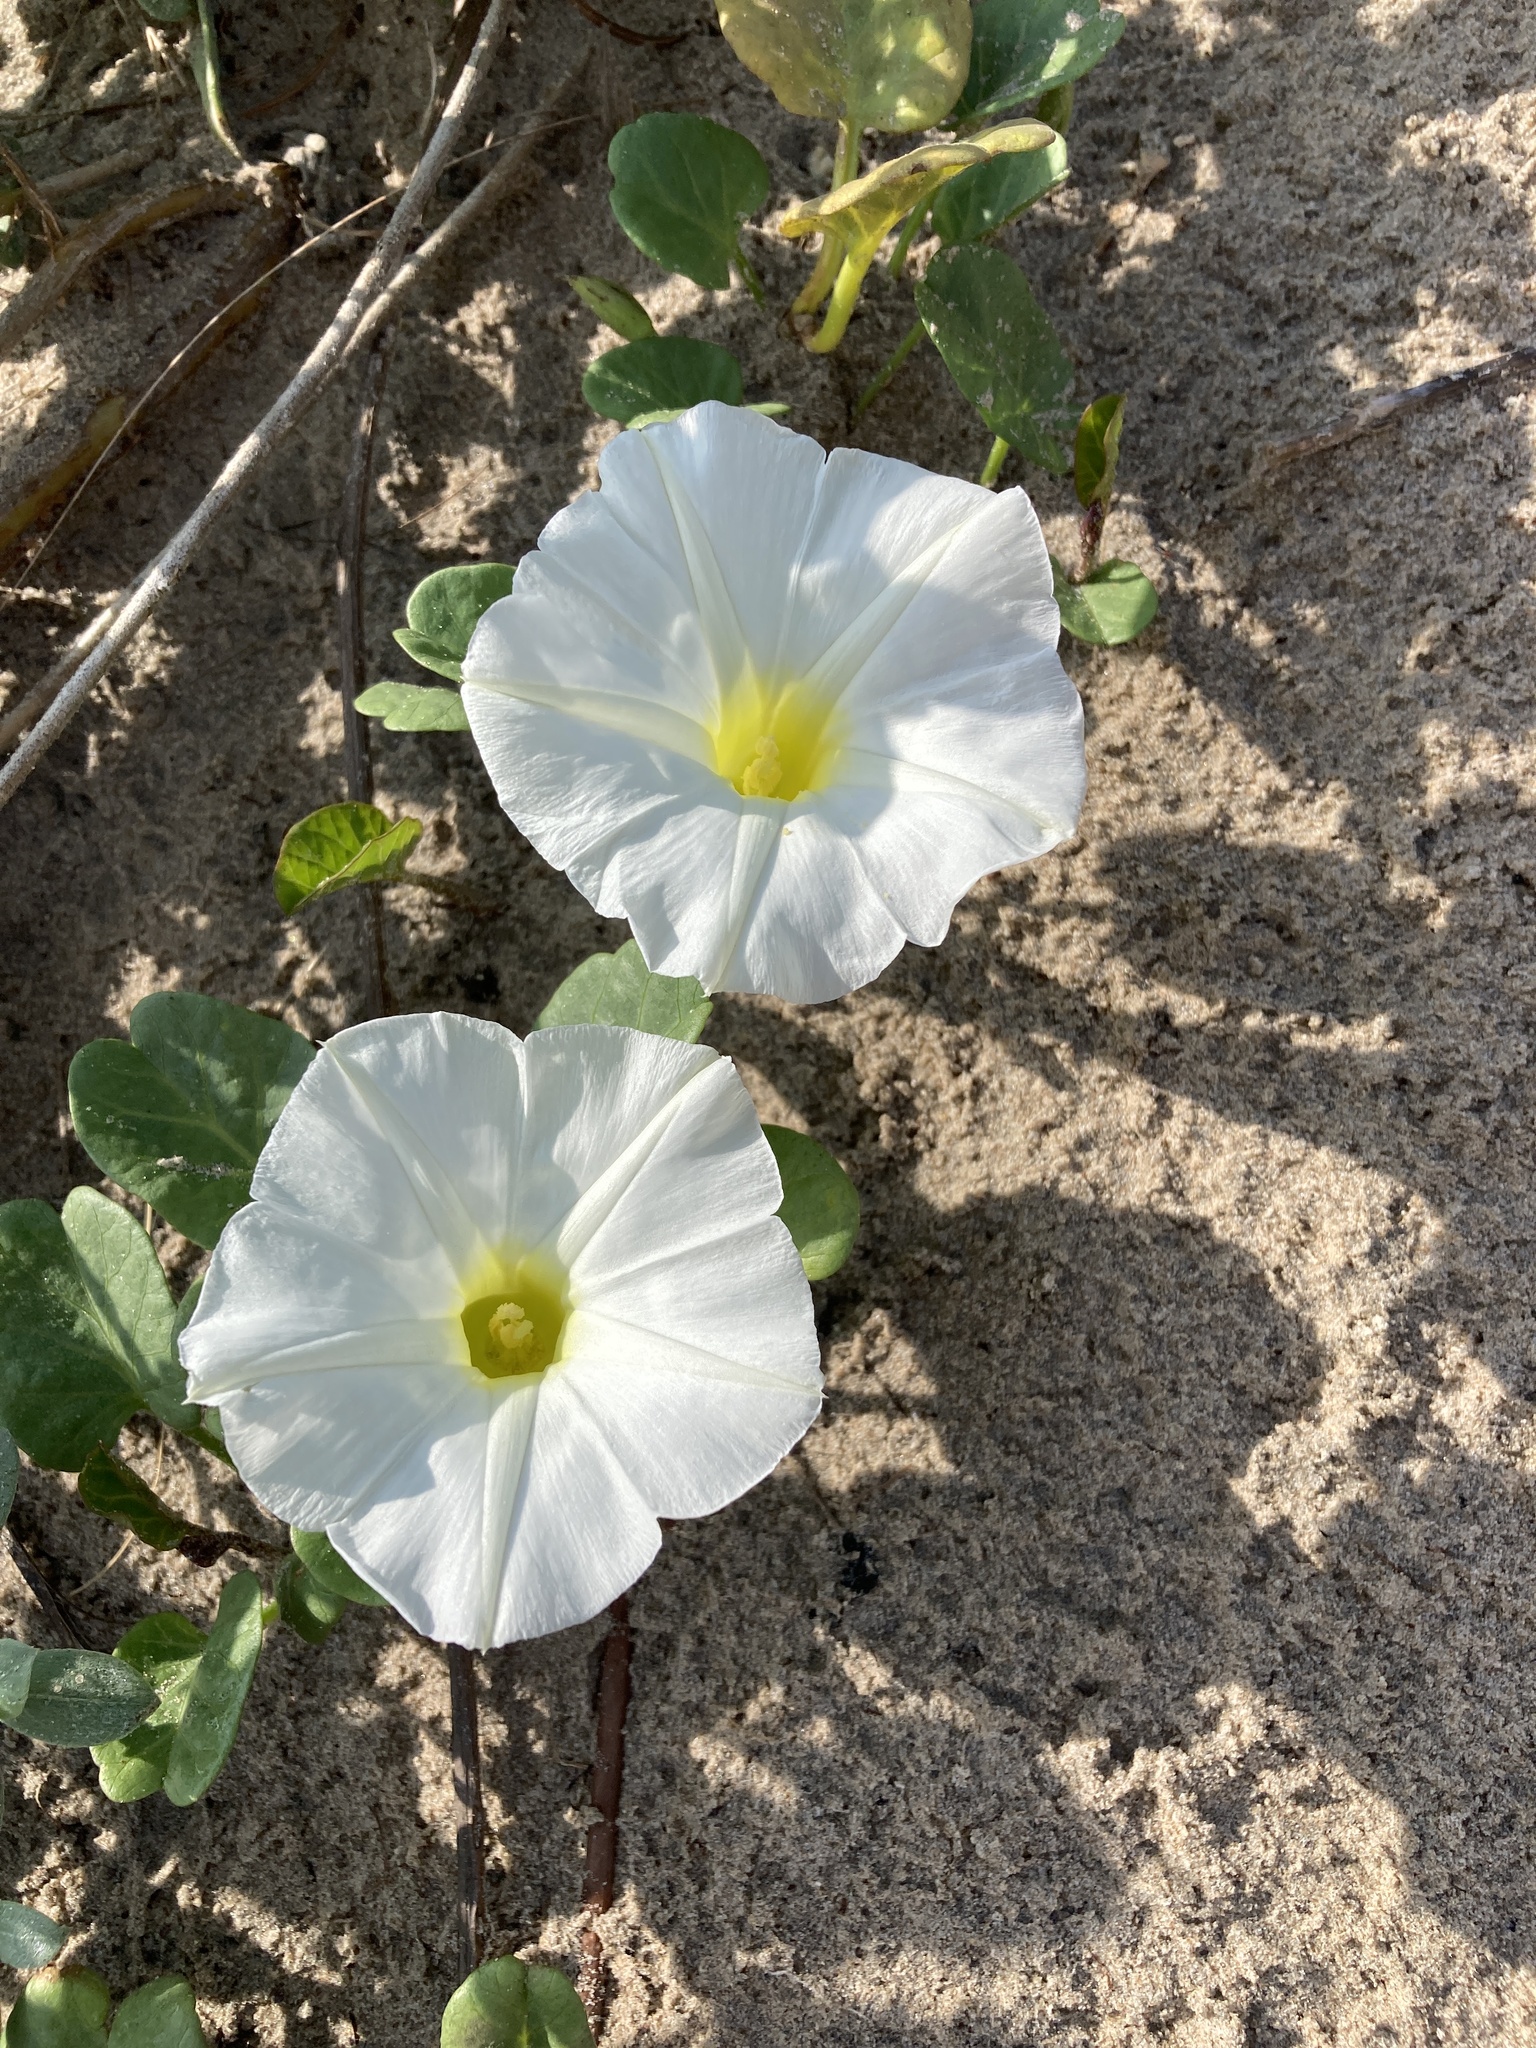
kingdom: Plantae
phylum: Tracheophyta
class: Magnoliopsida
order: Solanales
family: Convolvulaceae
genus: Ipomoea
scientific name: Ipomoea imperati
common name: Fiddle-leaf morning-glory
